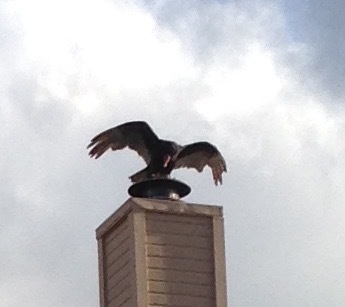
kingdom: Animalia
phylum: Chordata
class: Aves
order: Accipitriformes
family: Cathartidae
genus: Cathartes
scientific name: Cathartes aura
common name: Turkey vulture
